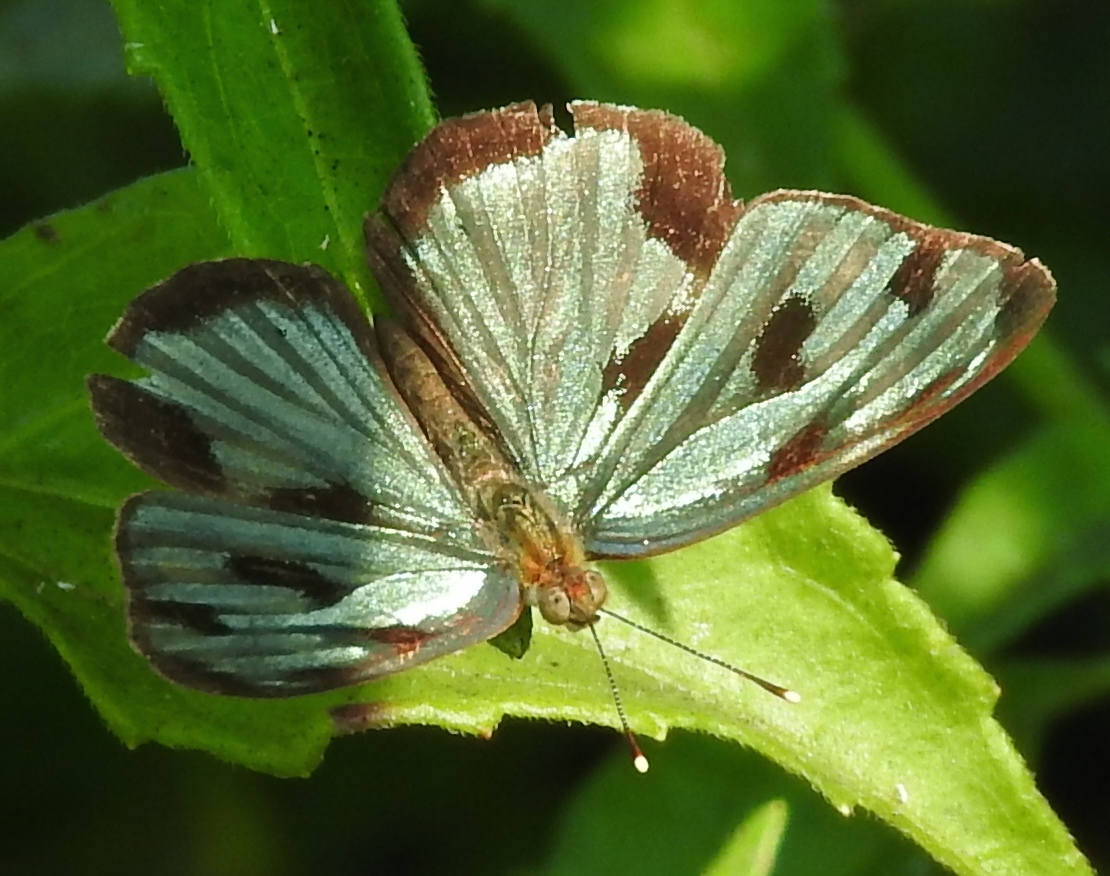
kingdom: Animalia
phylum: Arthropoda
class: Insecta
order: Lepidoptera
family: Nymphalidae
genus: Dynamine
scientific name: Dynamine mylitta
